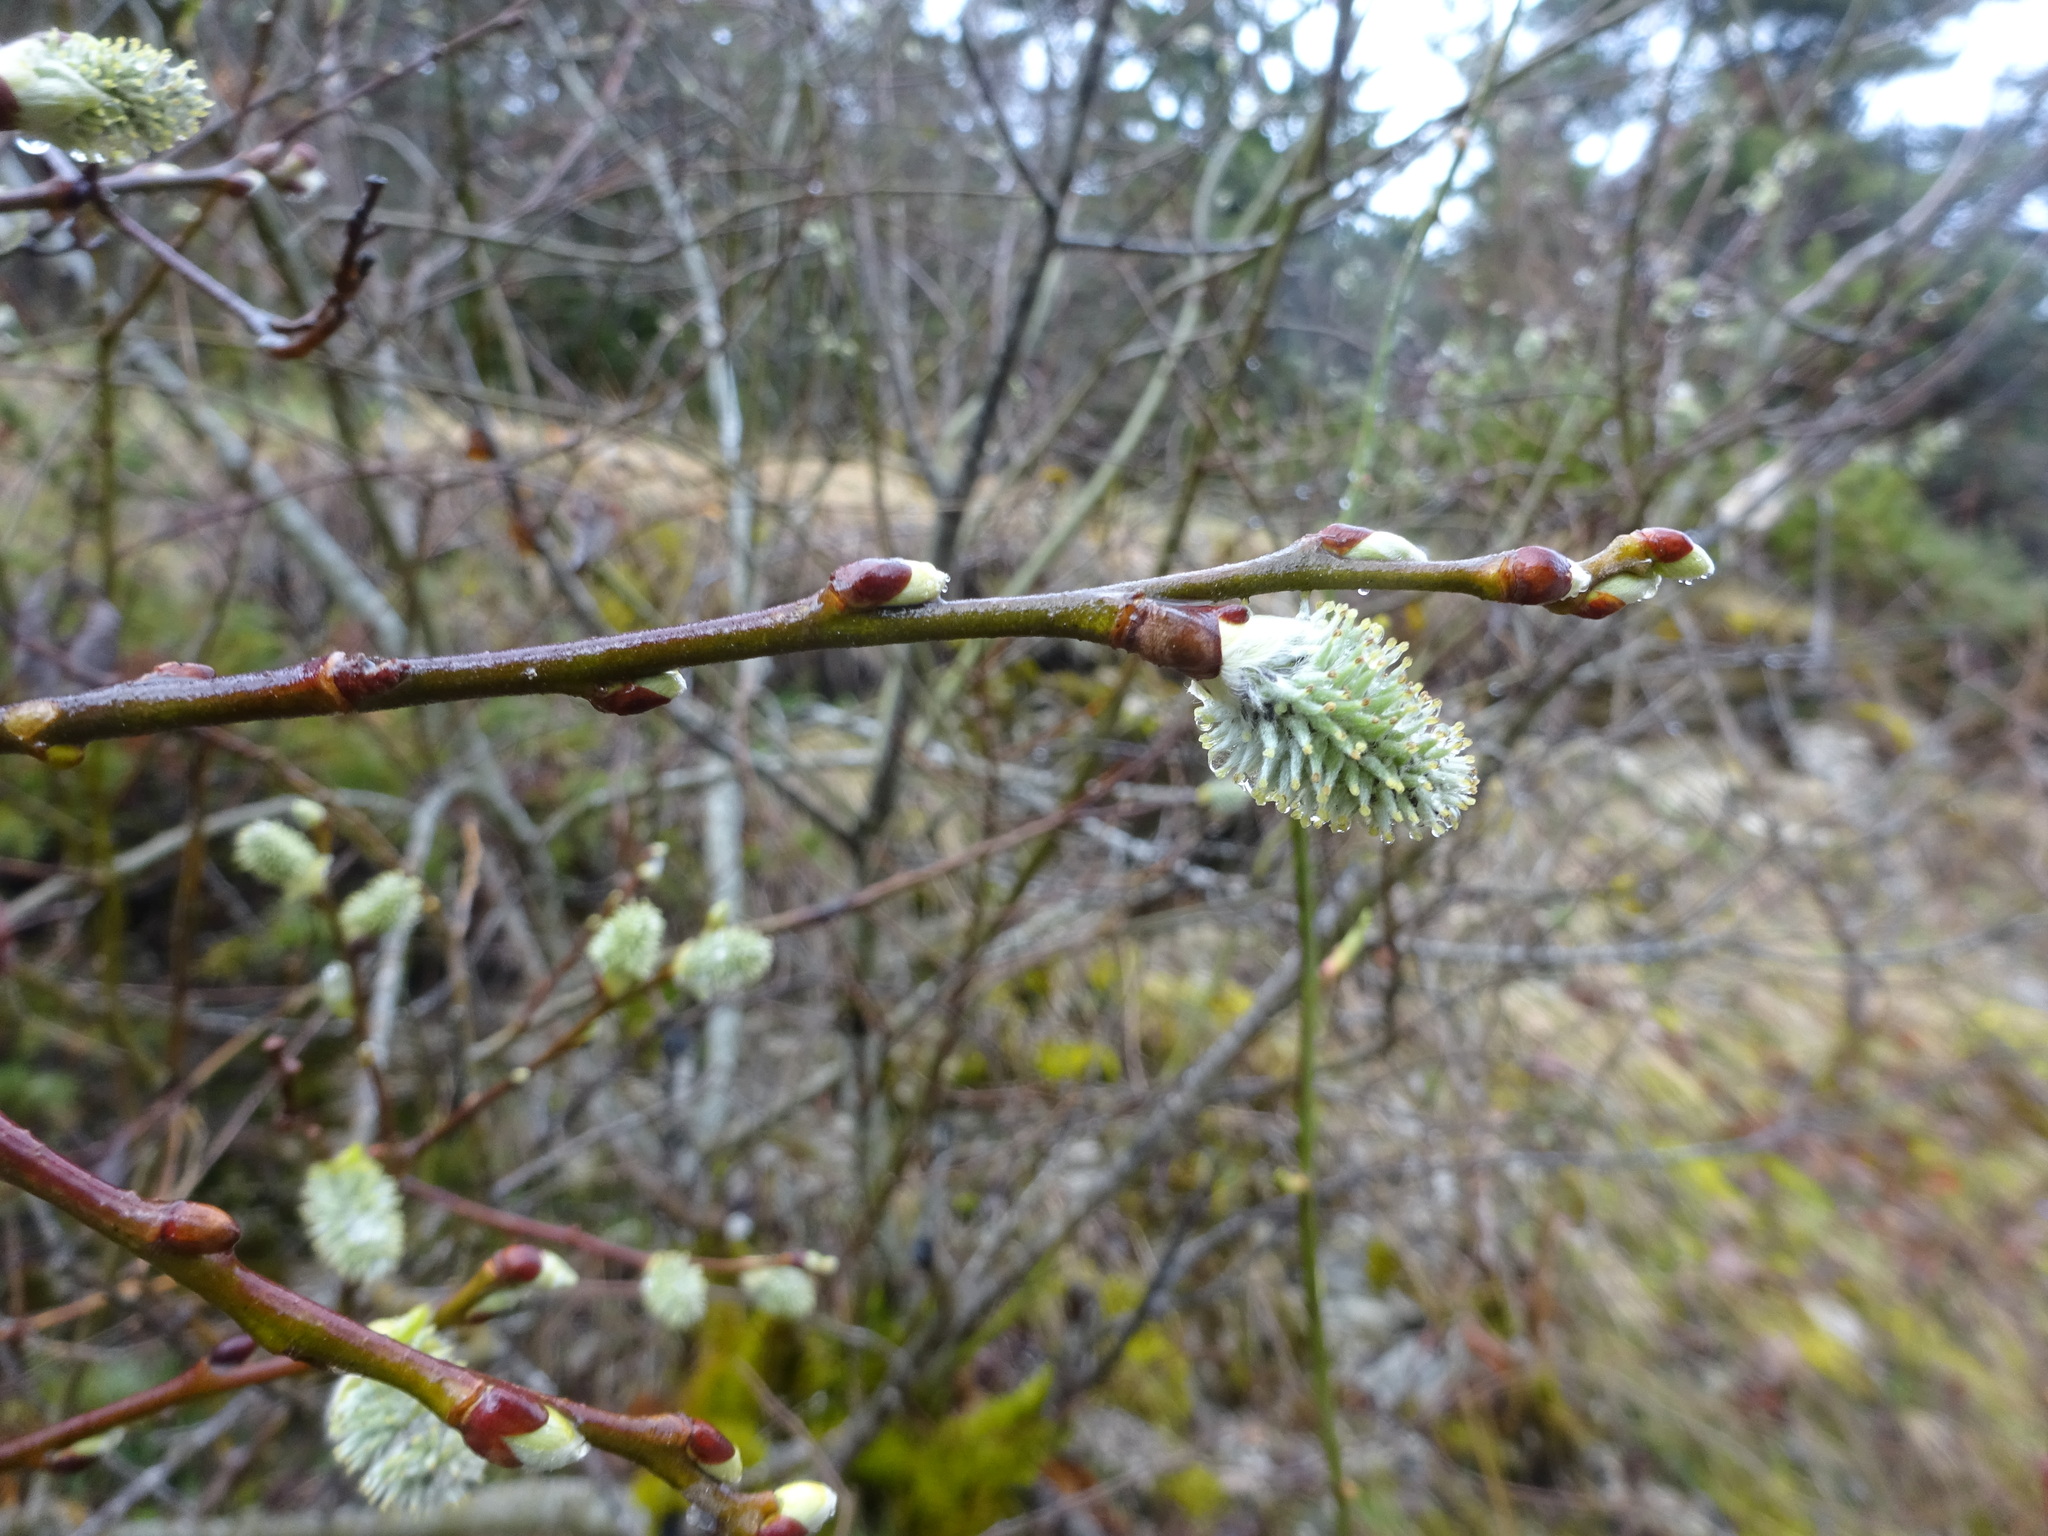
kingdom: Plantae
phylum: Tracheophyta
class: Magnoliopsida
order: Malpighiales
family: Salicaceae
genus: Salix
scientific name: Salix caprea
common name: Goat willow
